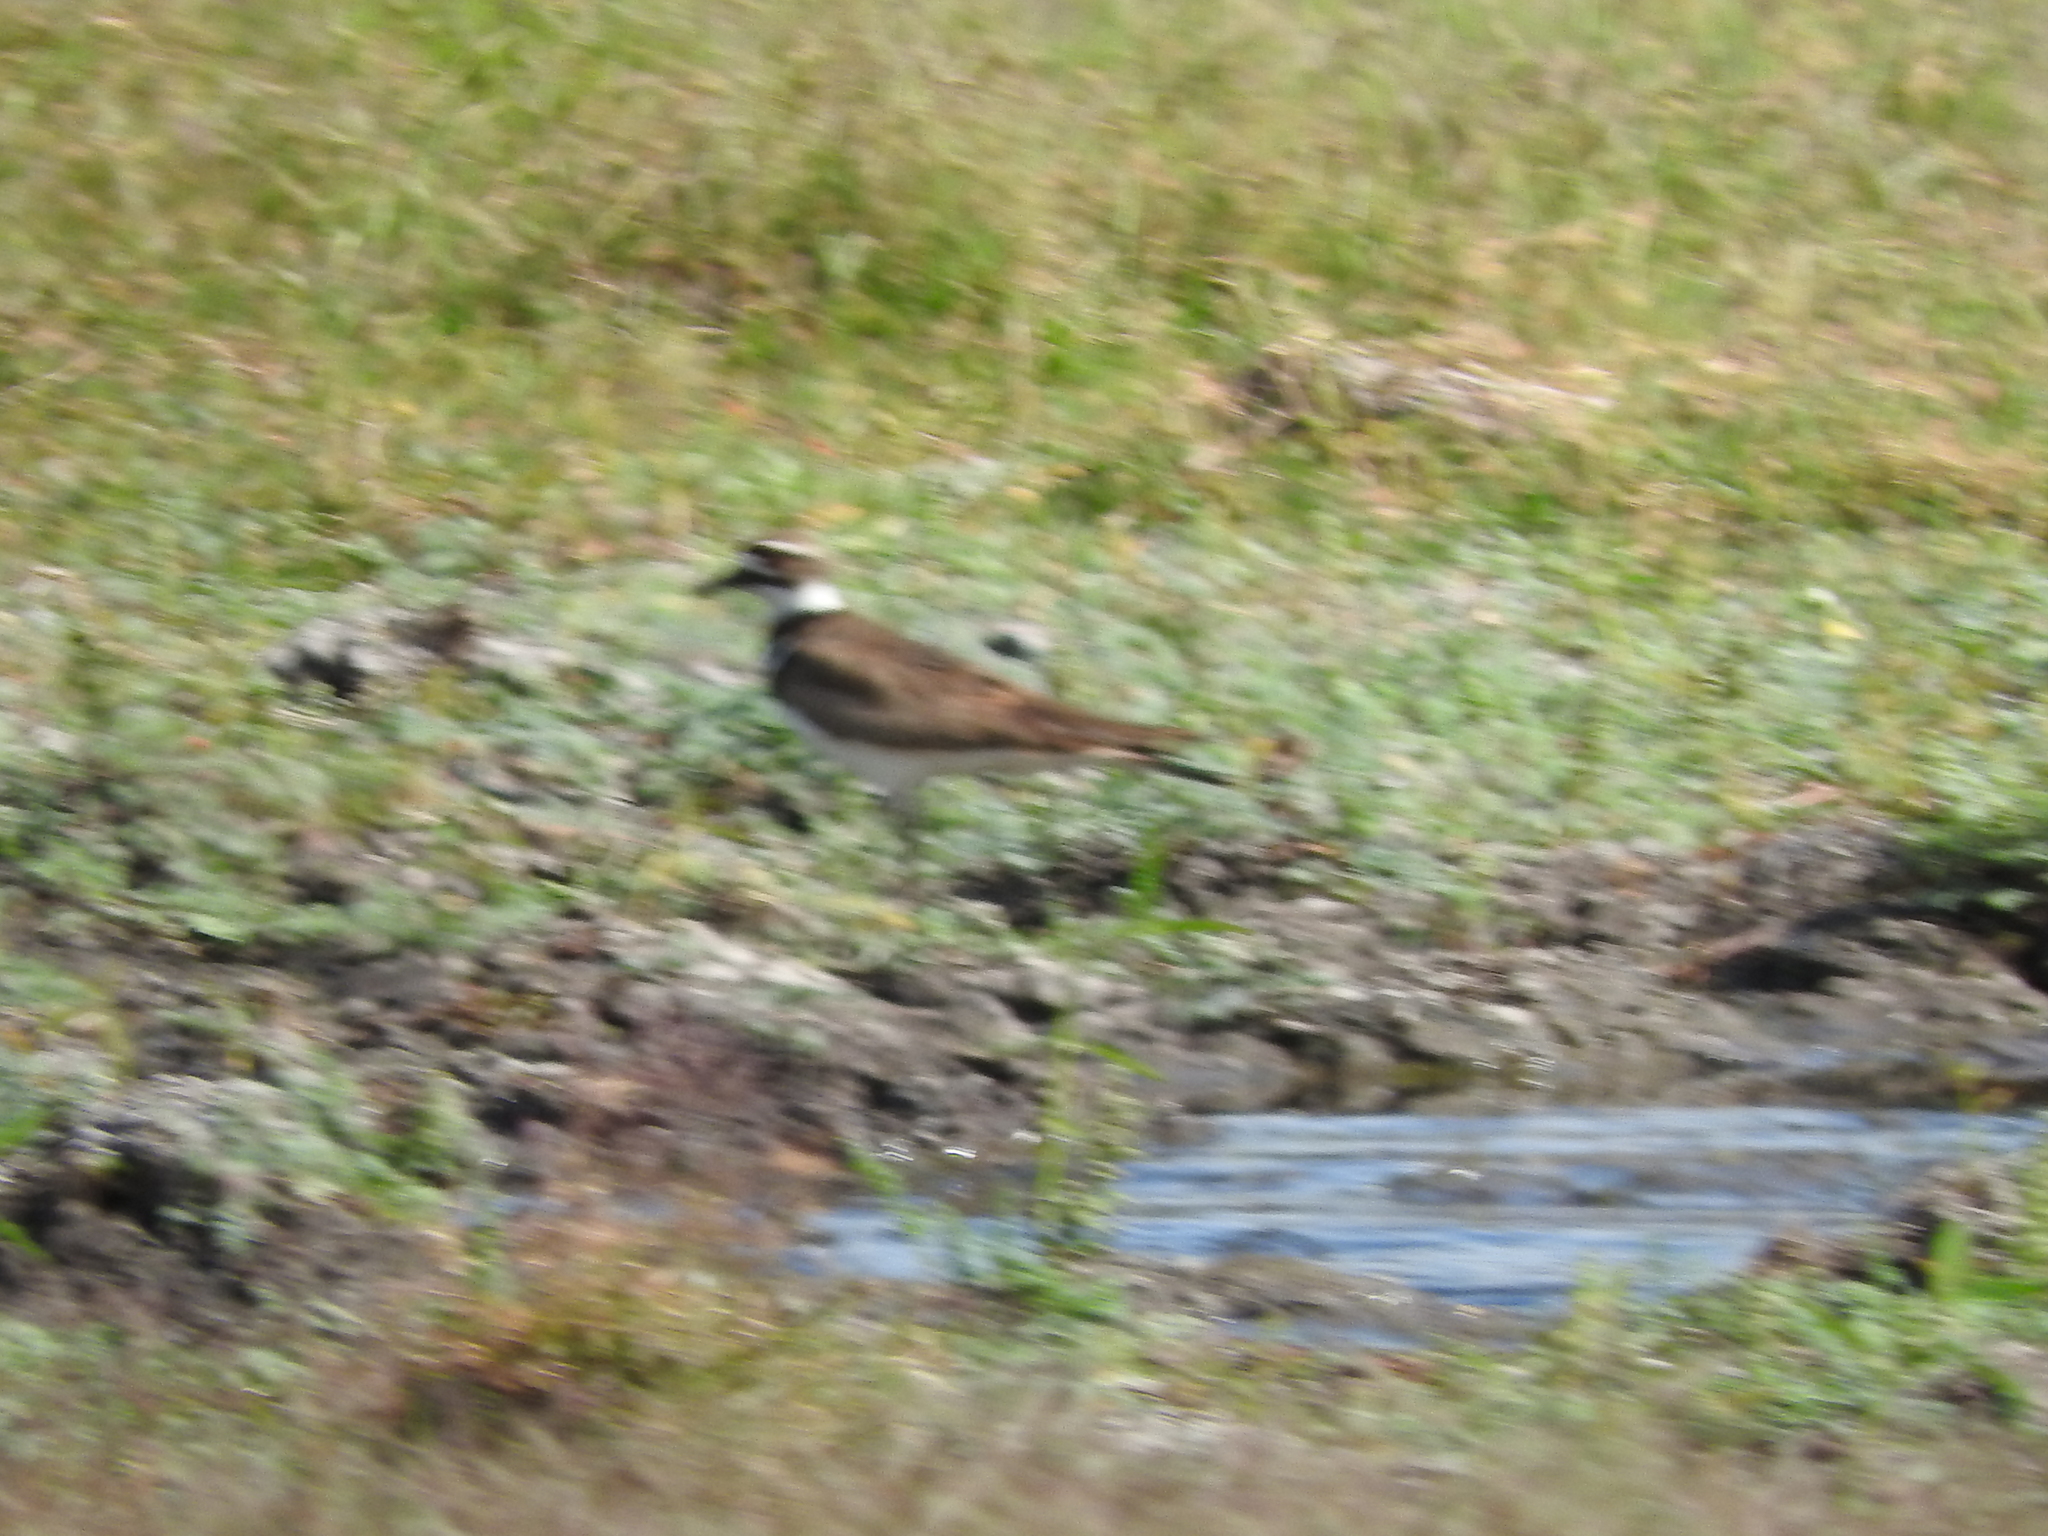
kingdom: Animalia
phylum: Chordata
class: Aves
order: Charadriiformes
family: Charadriidae
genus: Charadrius
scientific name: Charadrius vociferus
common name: Killdeer
